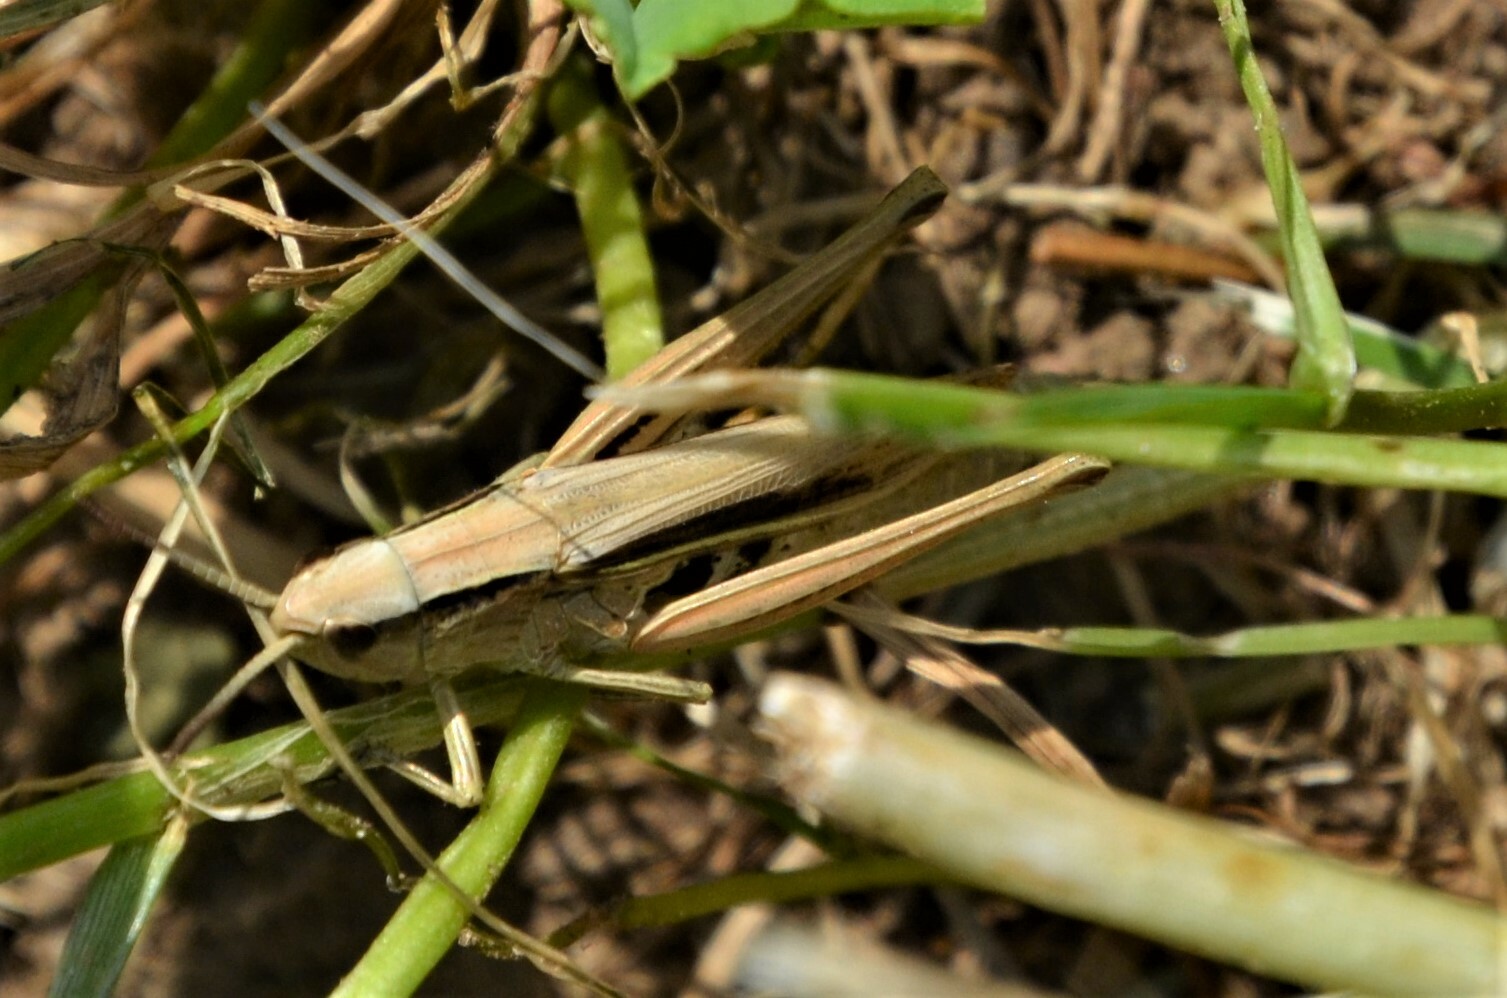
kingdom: Animalia
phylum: Arthropoda
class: Insecta
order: Orthoptera
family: Acrididae
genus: Chorthippus
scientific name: Chorthippus albomarginatus
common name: Lesser marsh grasshopper
